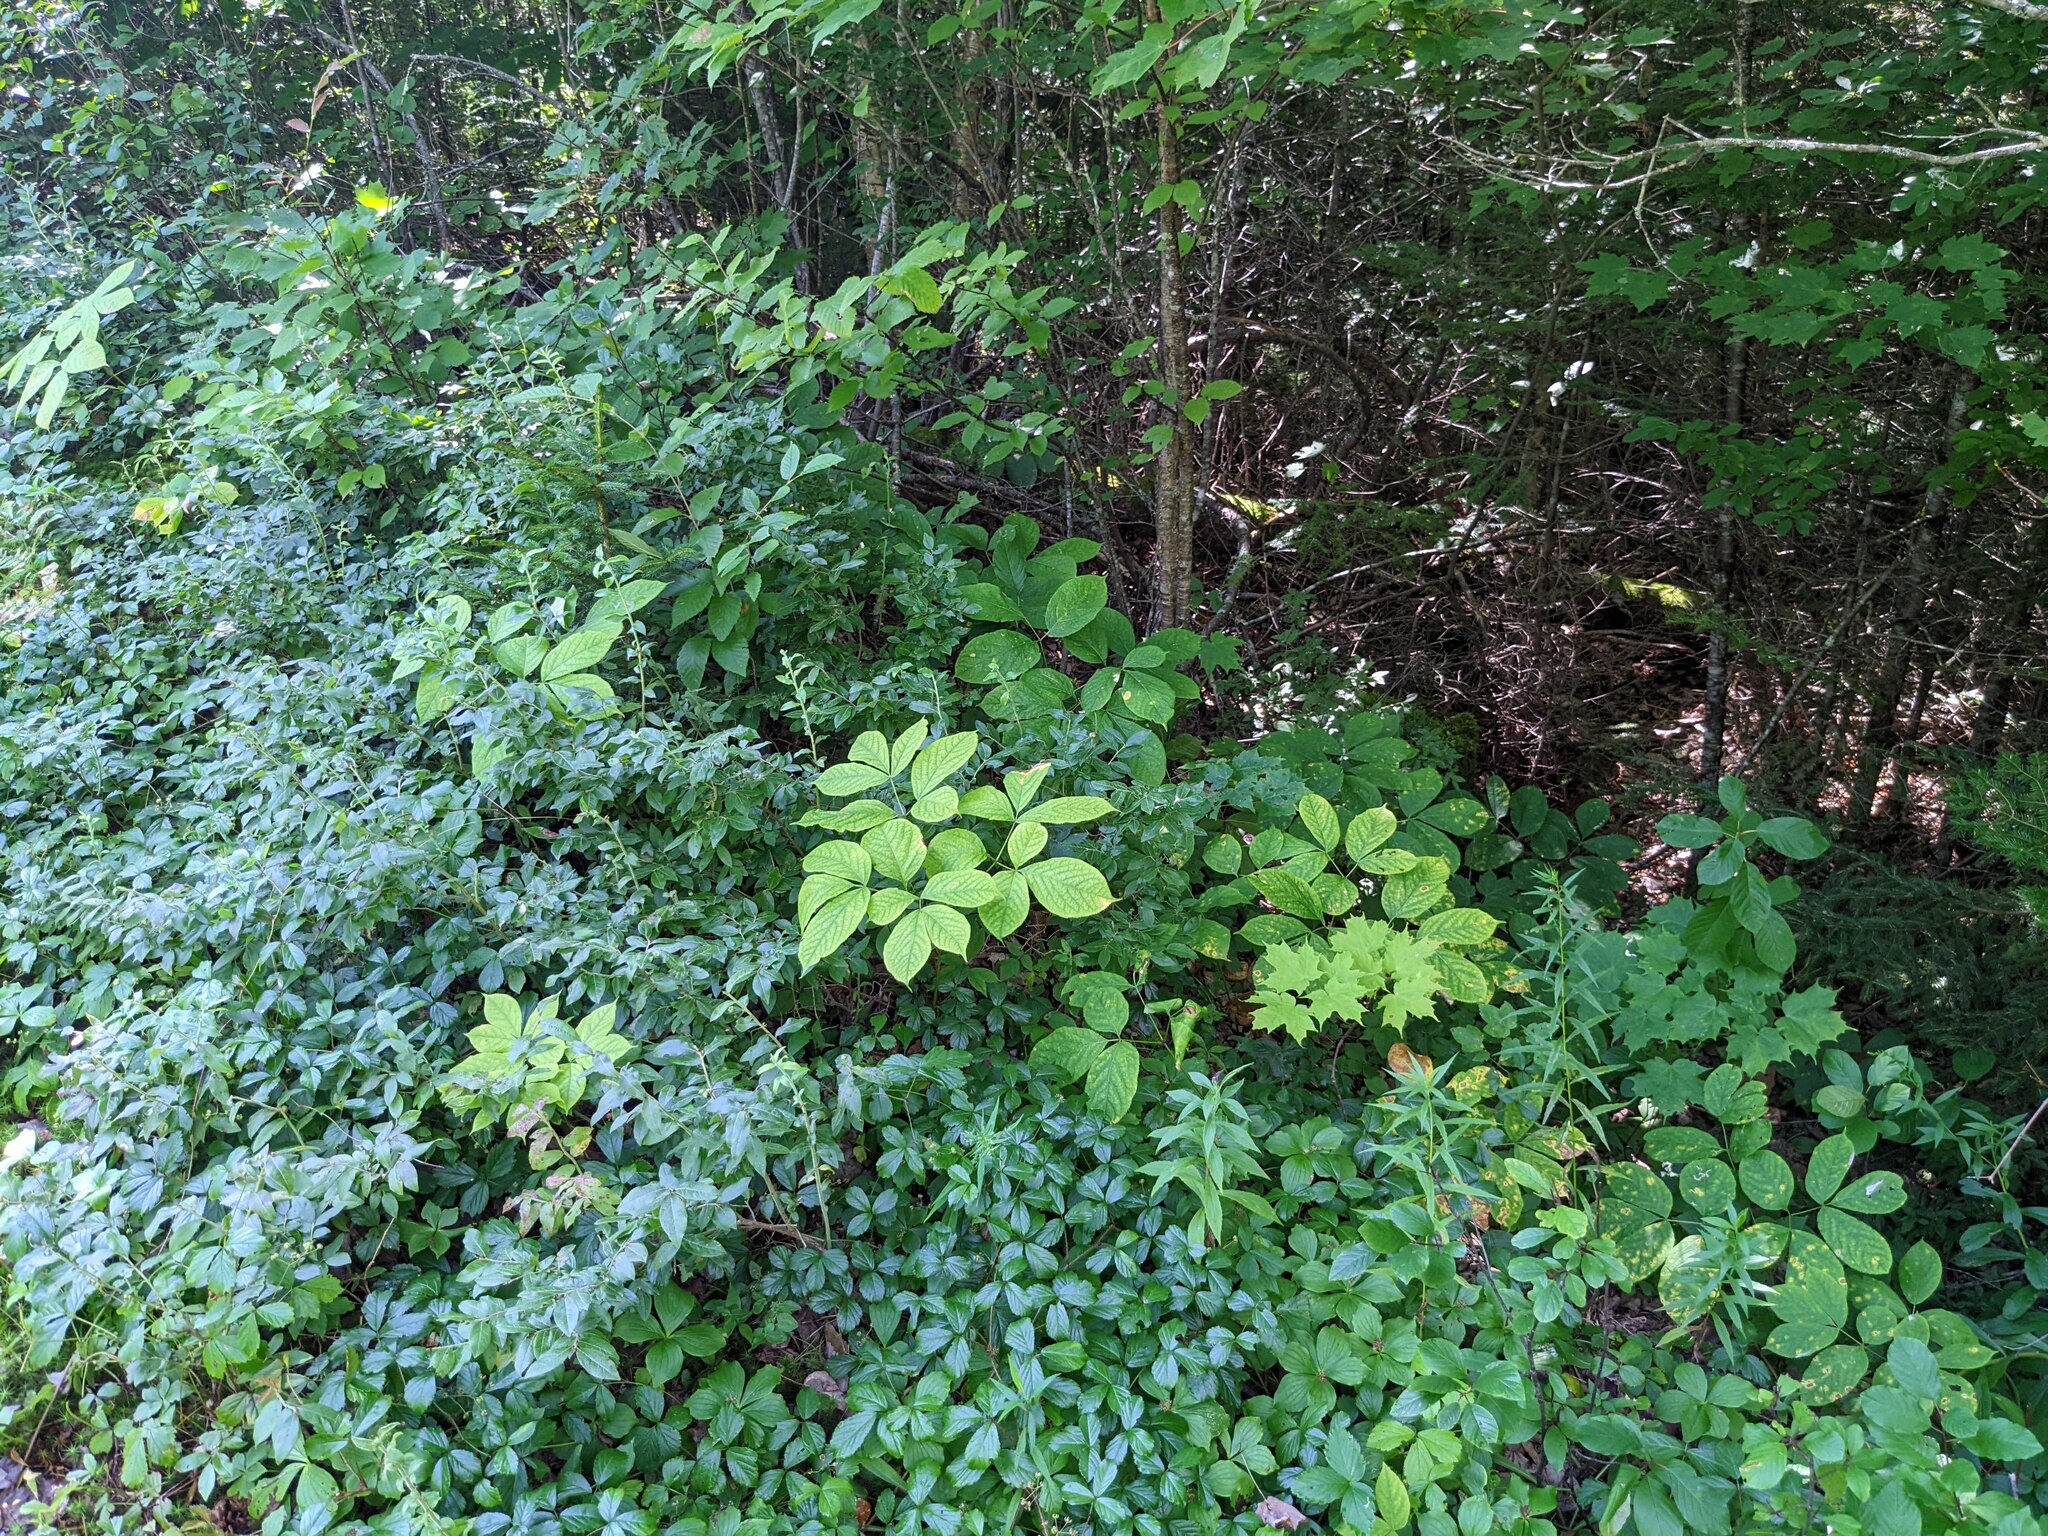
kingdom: Plantae
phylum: Tracheophyta
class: Magnoliopsida
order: Apiales
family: Araliaceae
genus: Aralia
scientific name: Aralia nudicaulis
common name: Wild sarsaparilla
